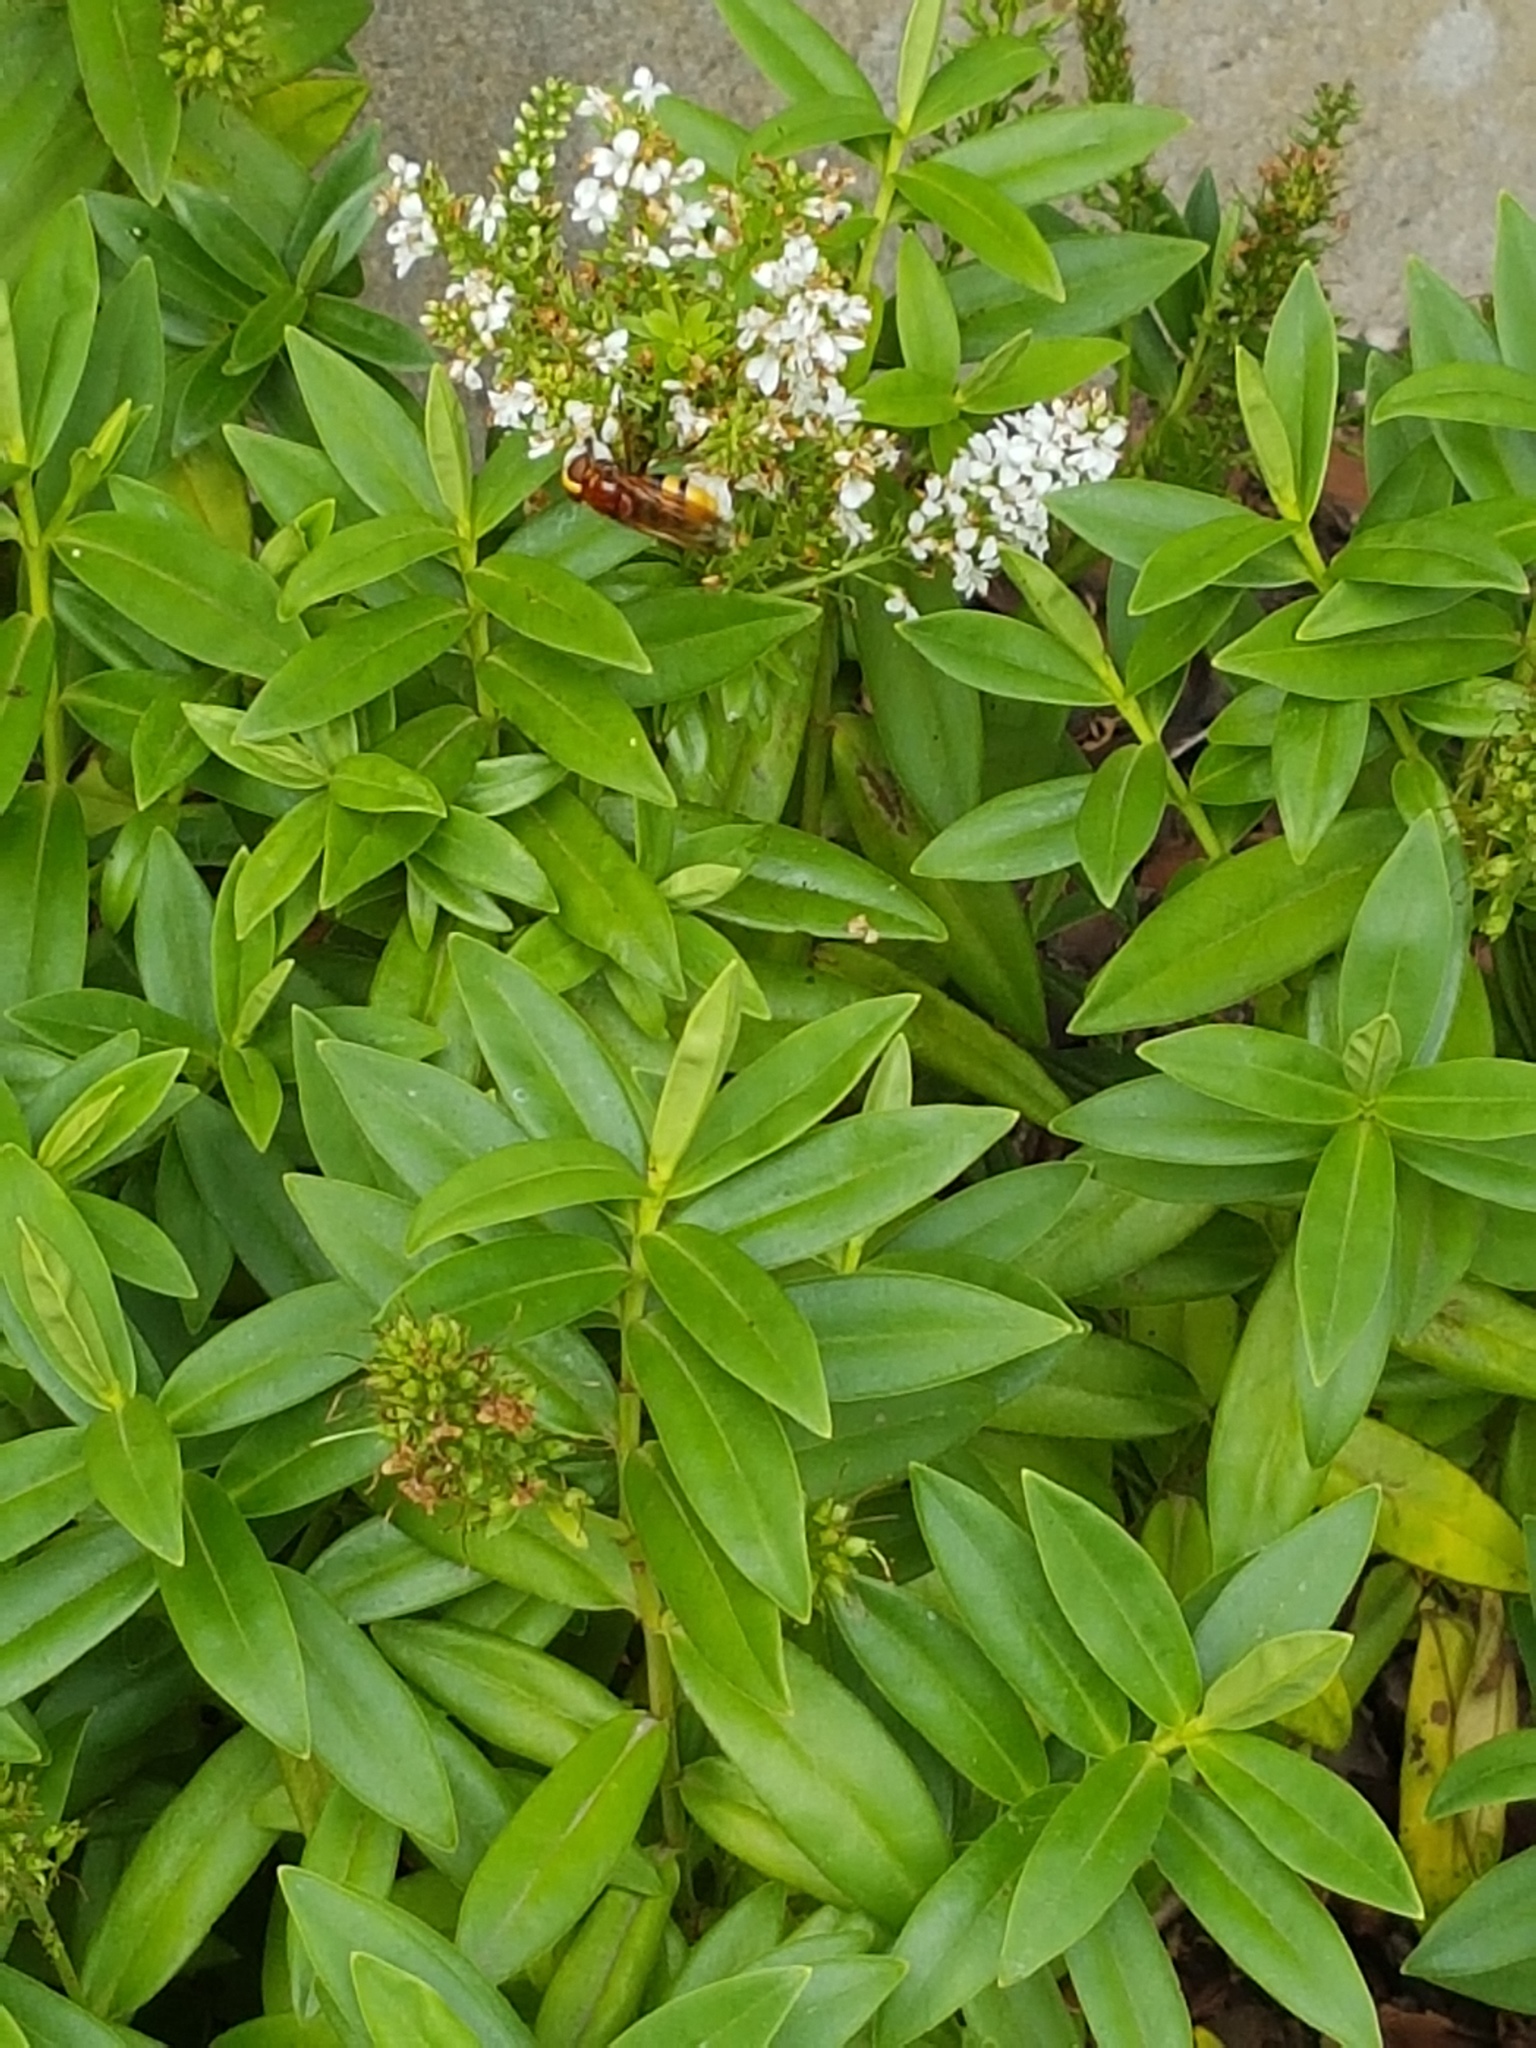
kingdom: Animalia
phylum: Arthropoda
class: Insecta
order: Diptera
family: Syrphidae
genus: Volucella
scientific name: Volucella zonaria
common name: Hornet hoverfly
